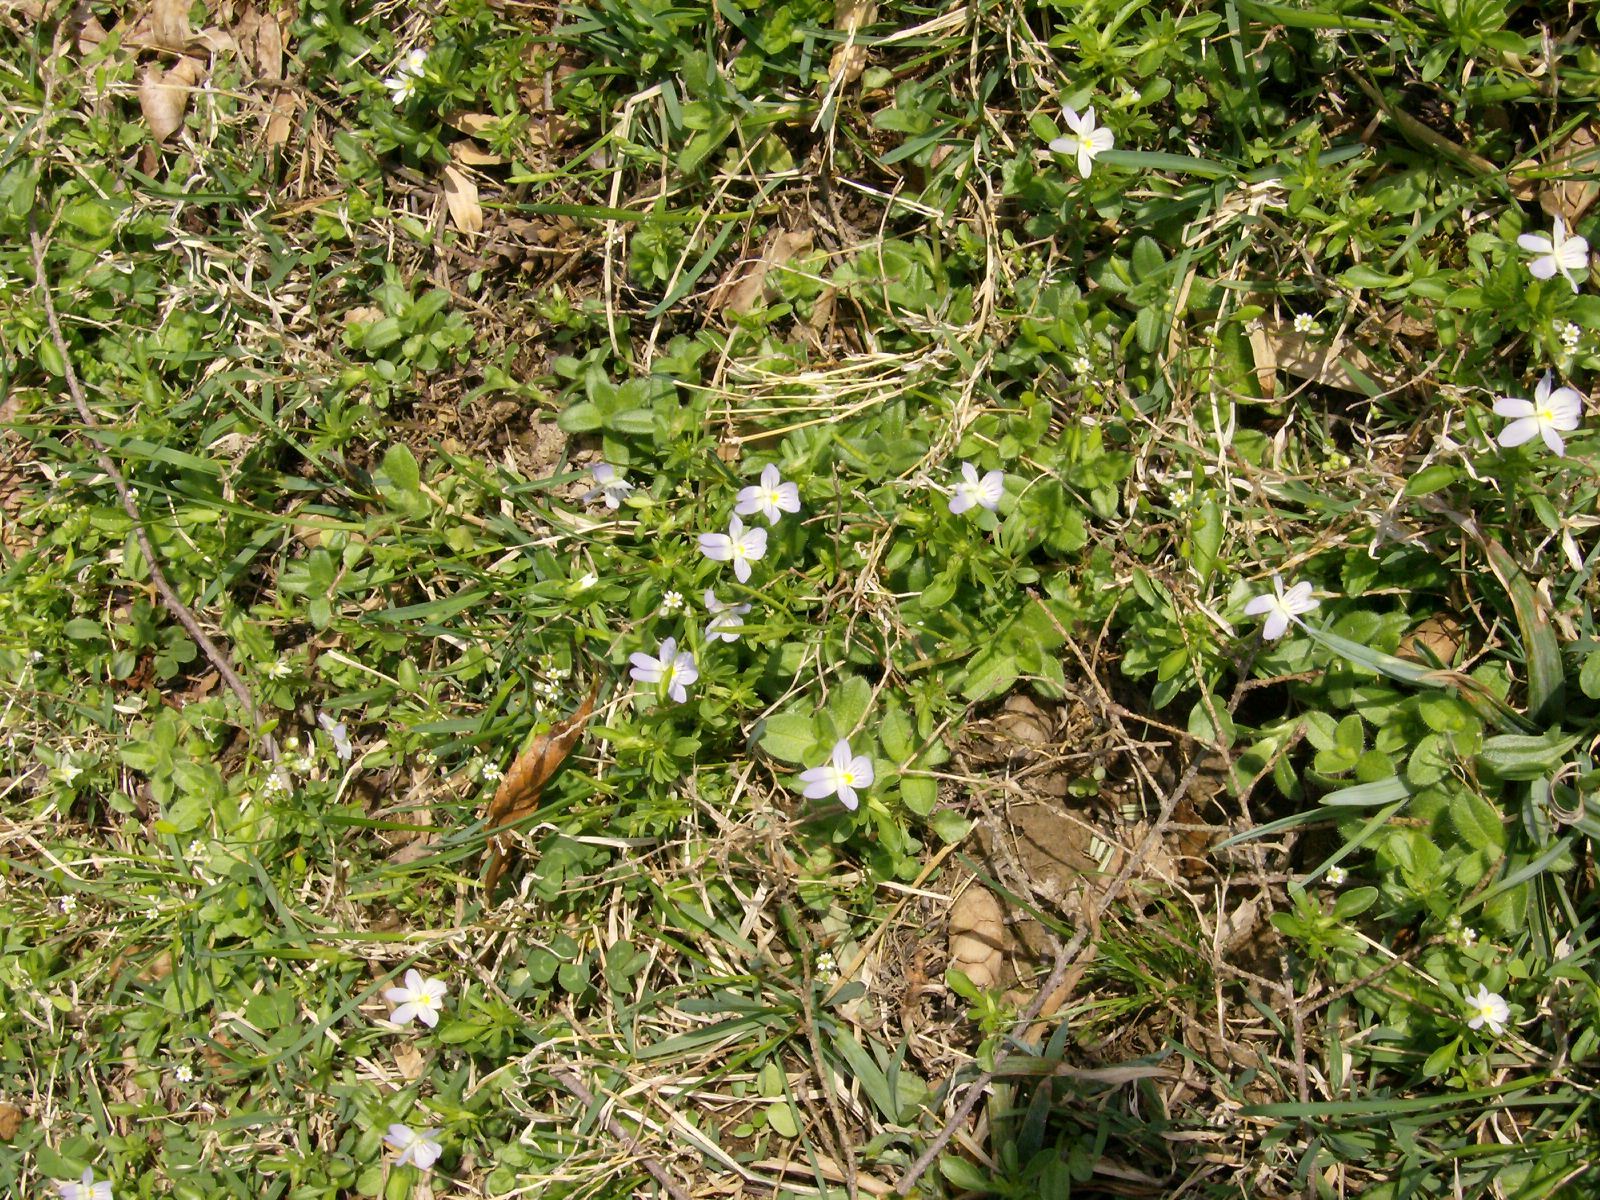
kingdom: Plantae
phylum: Tracheophyta
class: Magnoliopsida
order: Malpighiales
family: Violaceae
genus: Viola
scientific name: Viola rafinesquei
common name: American field pansy
